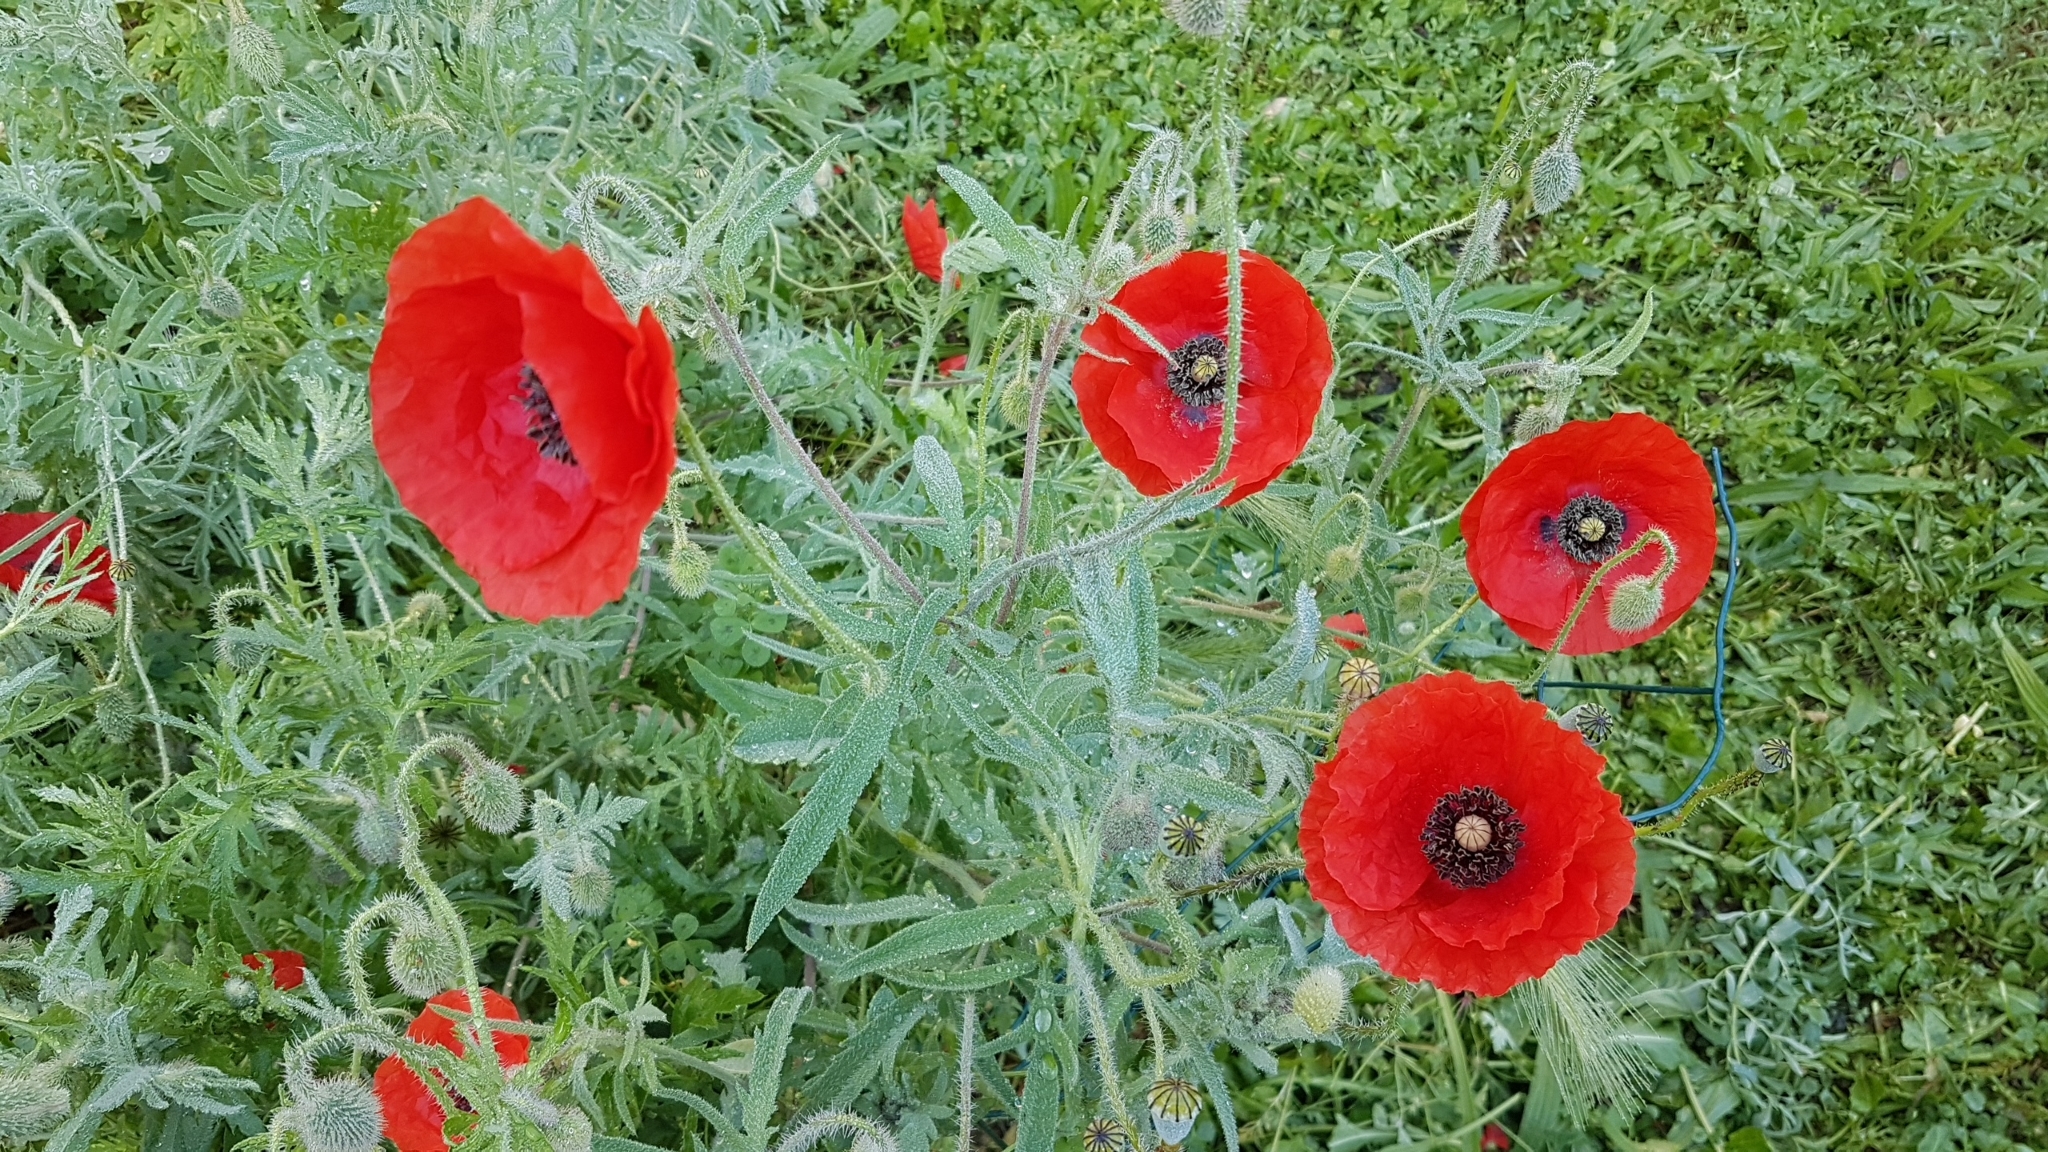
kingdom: Plantae
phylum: Tracheophyta
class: Magnoliopsida
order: Ranunculales
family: Papaveraceae
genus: Papaver
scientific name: Papaver rhoeas
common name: Corn poppy
